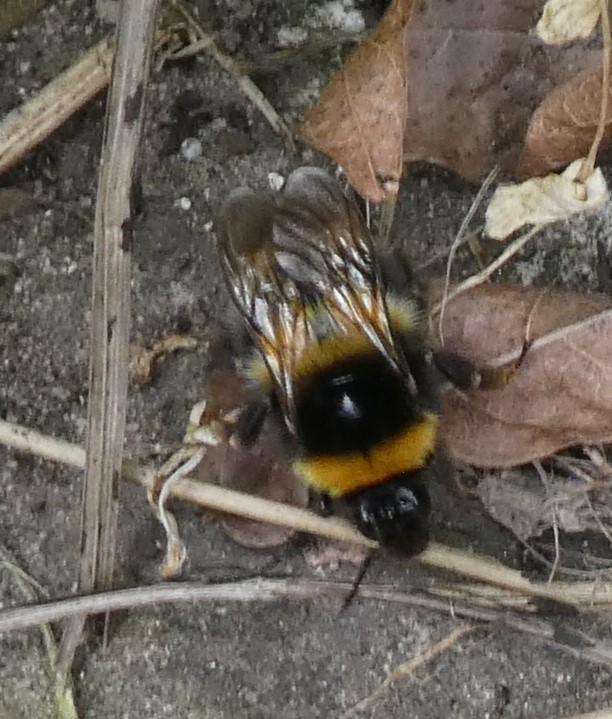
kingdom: Animalia
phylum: Arthropoda
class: Insecta
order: Hymenoptera
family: Apidae
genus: Bombus
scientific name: Bombus hortorum
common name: Garden bumblebee
